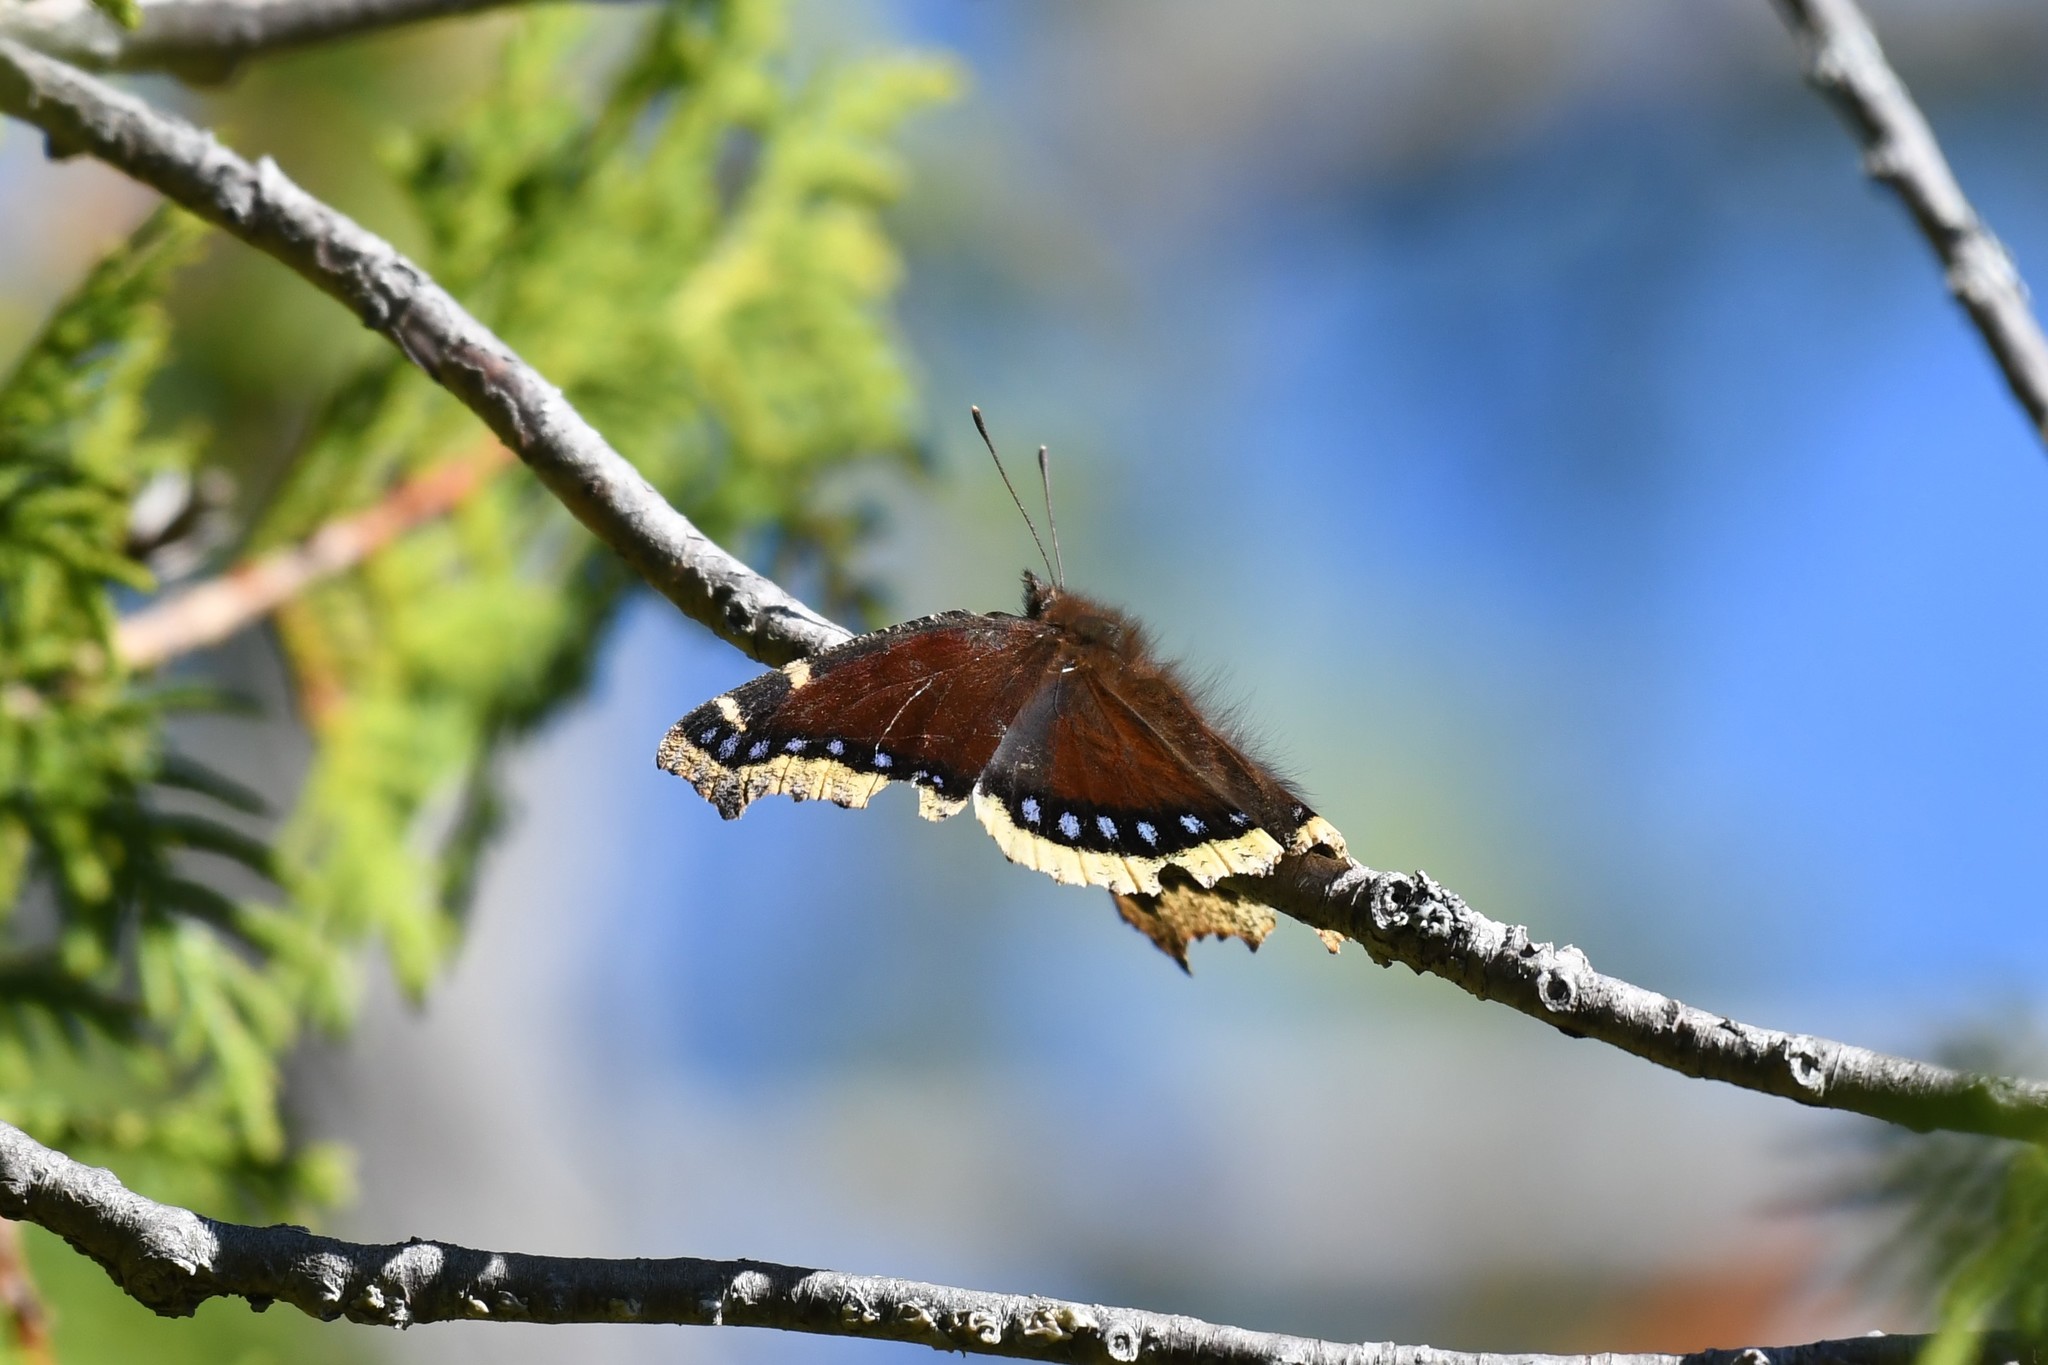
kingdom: Animalia
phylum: Arthropoda
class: Insecta
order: Lepidoptera
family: Nymphalidae
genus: Nymphalis
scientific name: Nymphalis antiopa
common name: Camberwell beauty
